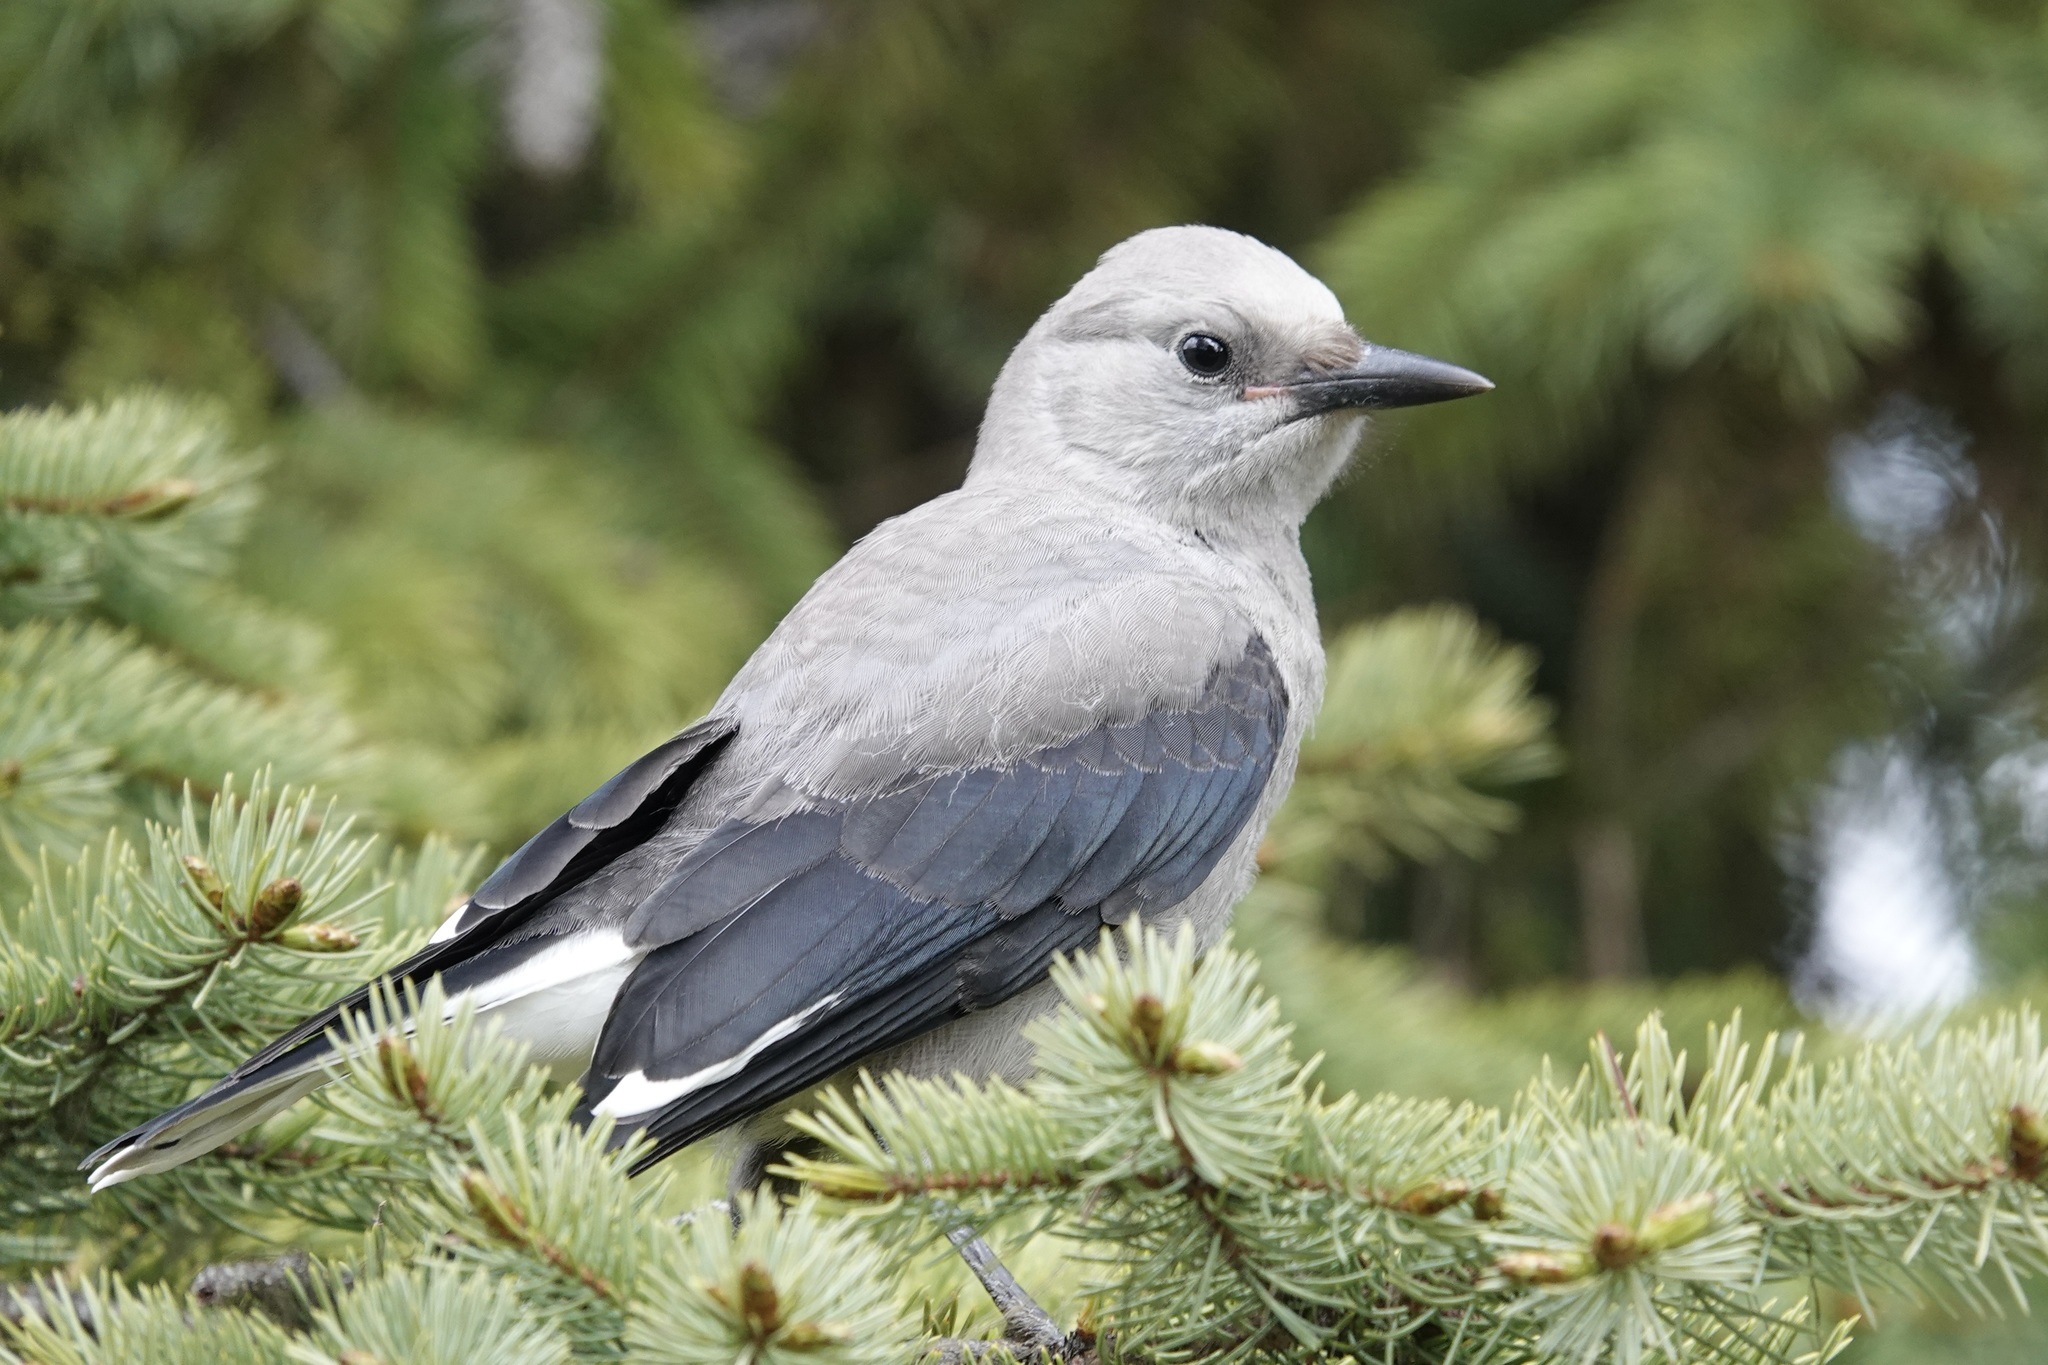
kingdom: Animalia
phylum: Chordata
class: Aves
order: Passeriformes
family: Corvidae
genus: Nucifraga
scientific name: Nucifraga columbiana
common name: Clark's nutcracker
